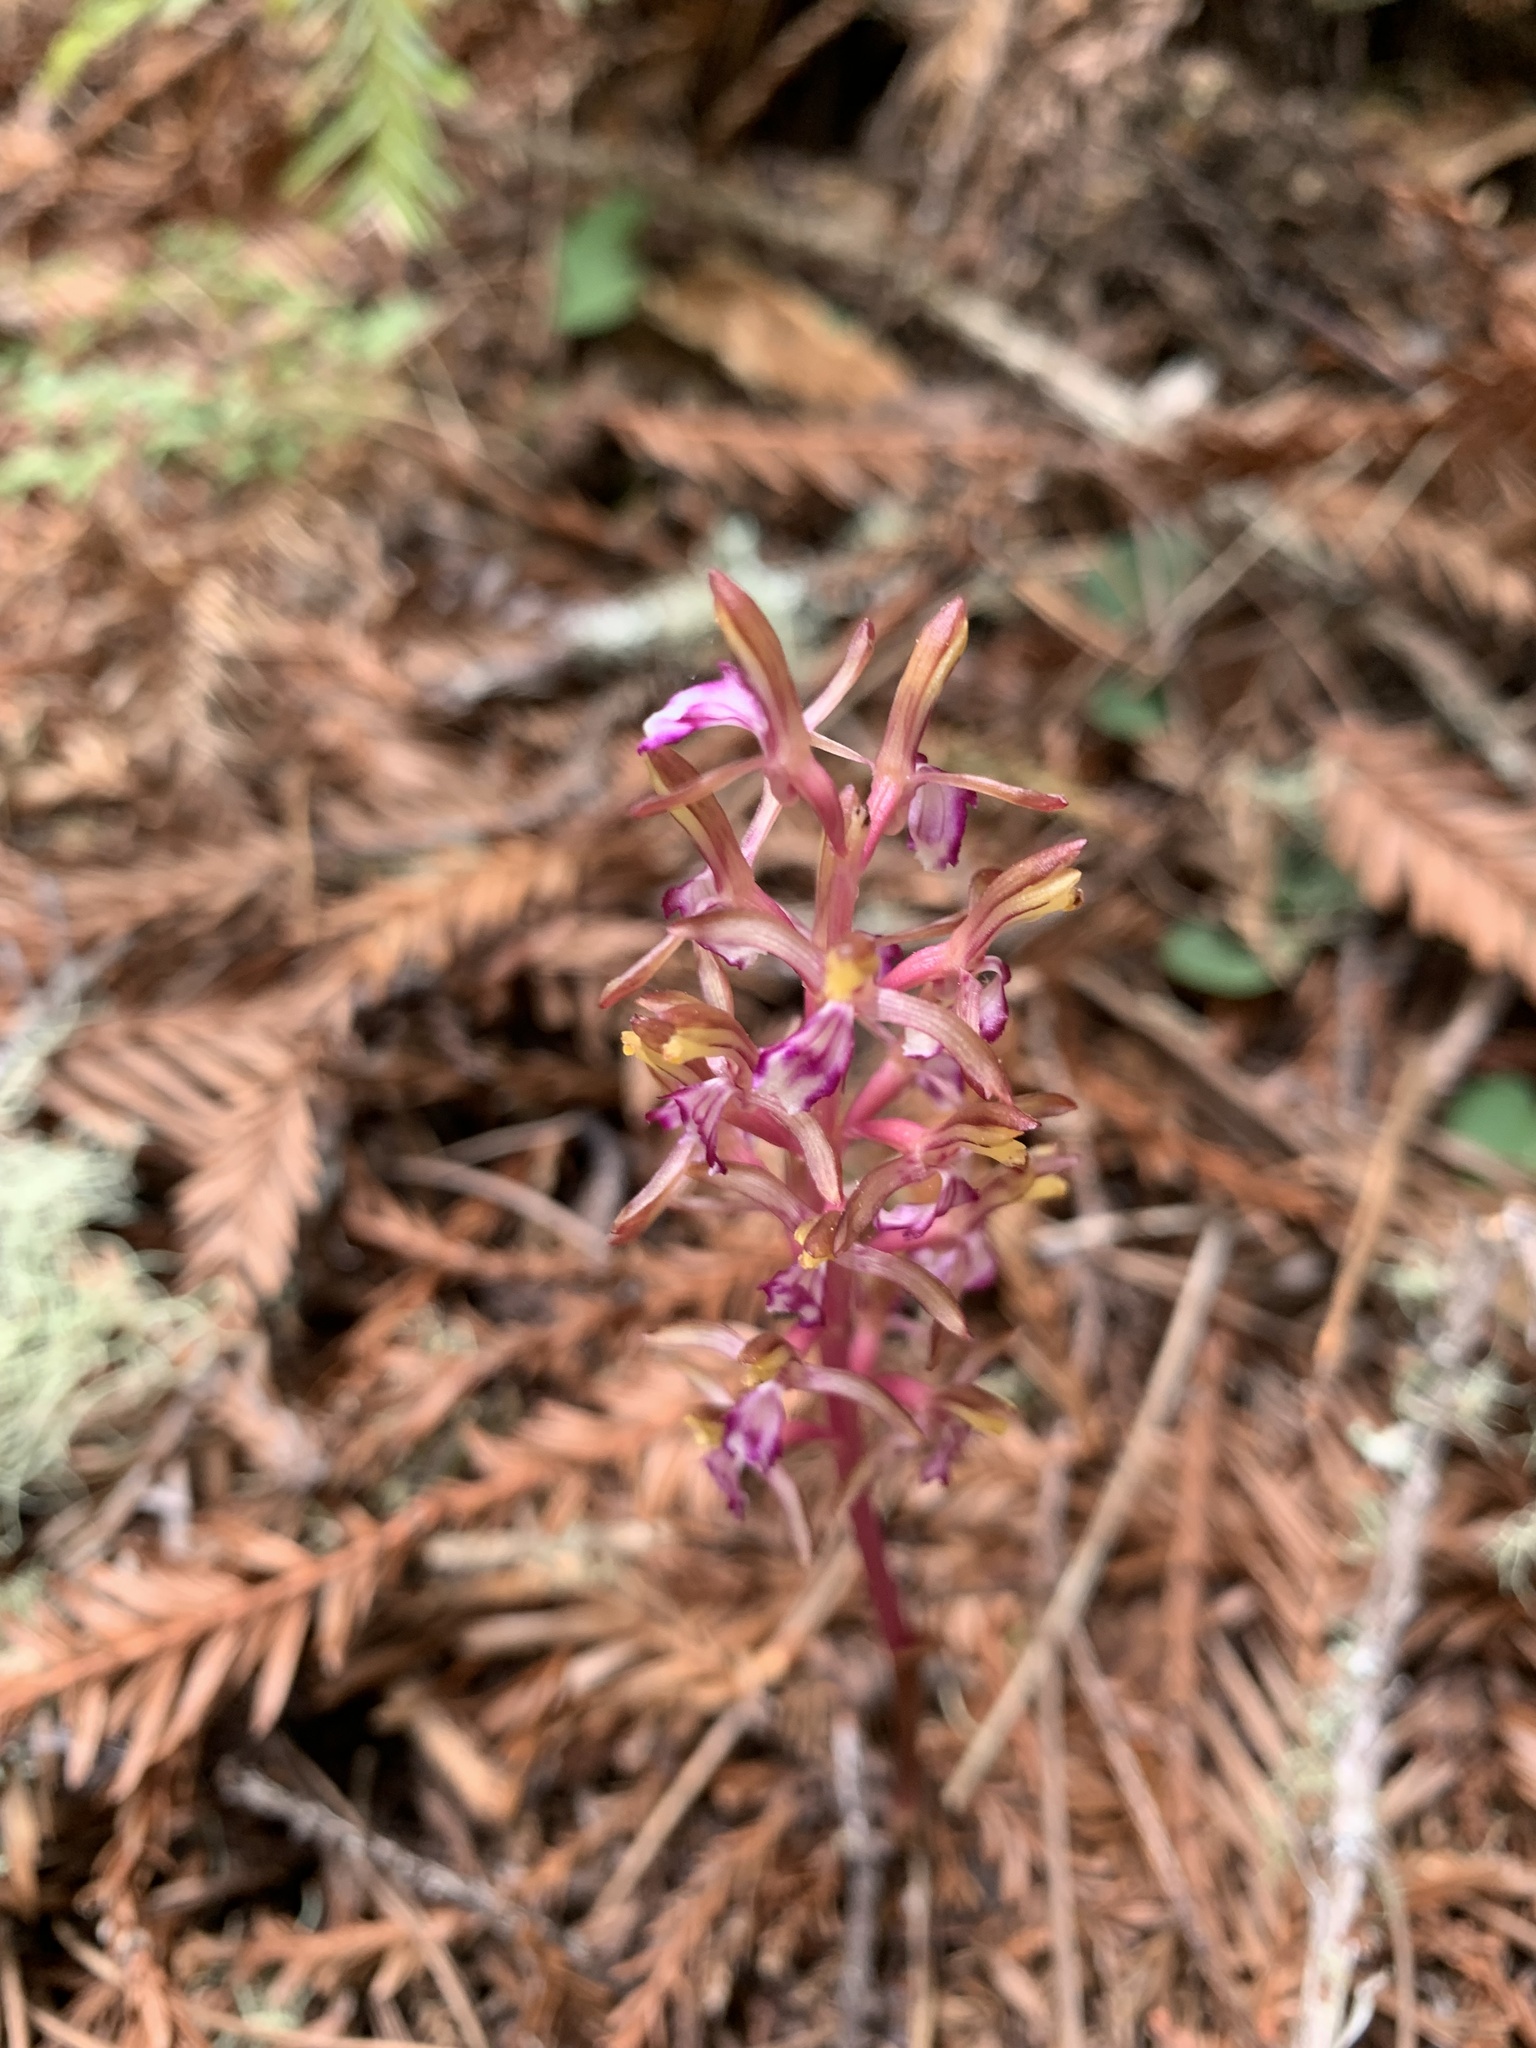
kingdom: Plantae
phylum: Tracheophyta
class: Liliopsida
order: Asparagales
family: Orchidaceae
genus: Corallorhiza
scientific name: Corallorhiza mertensiana
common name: Pacific coralroot
